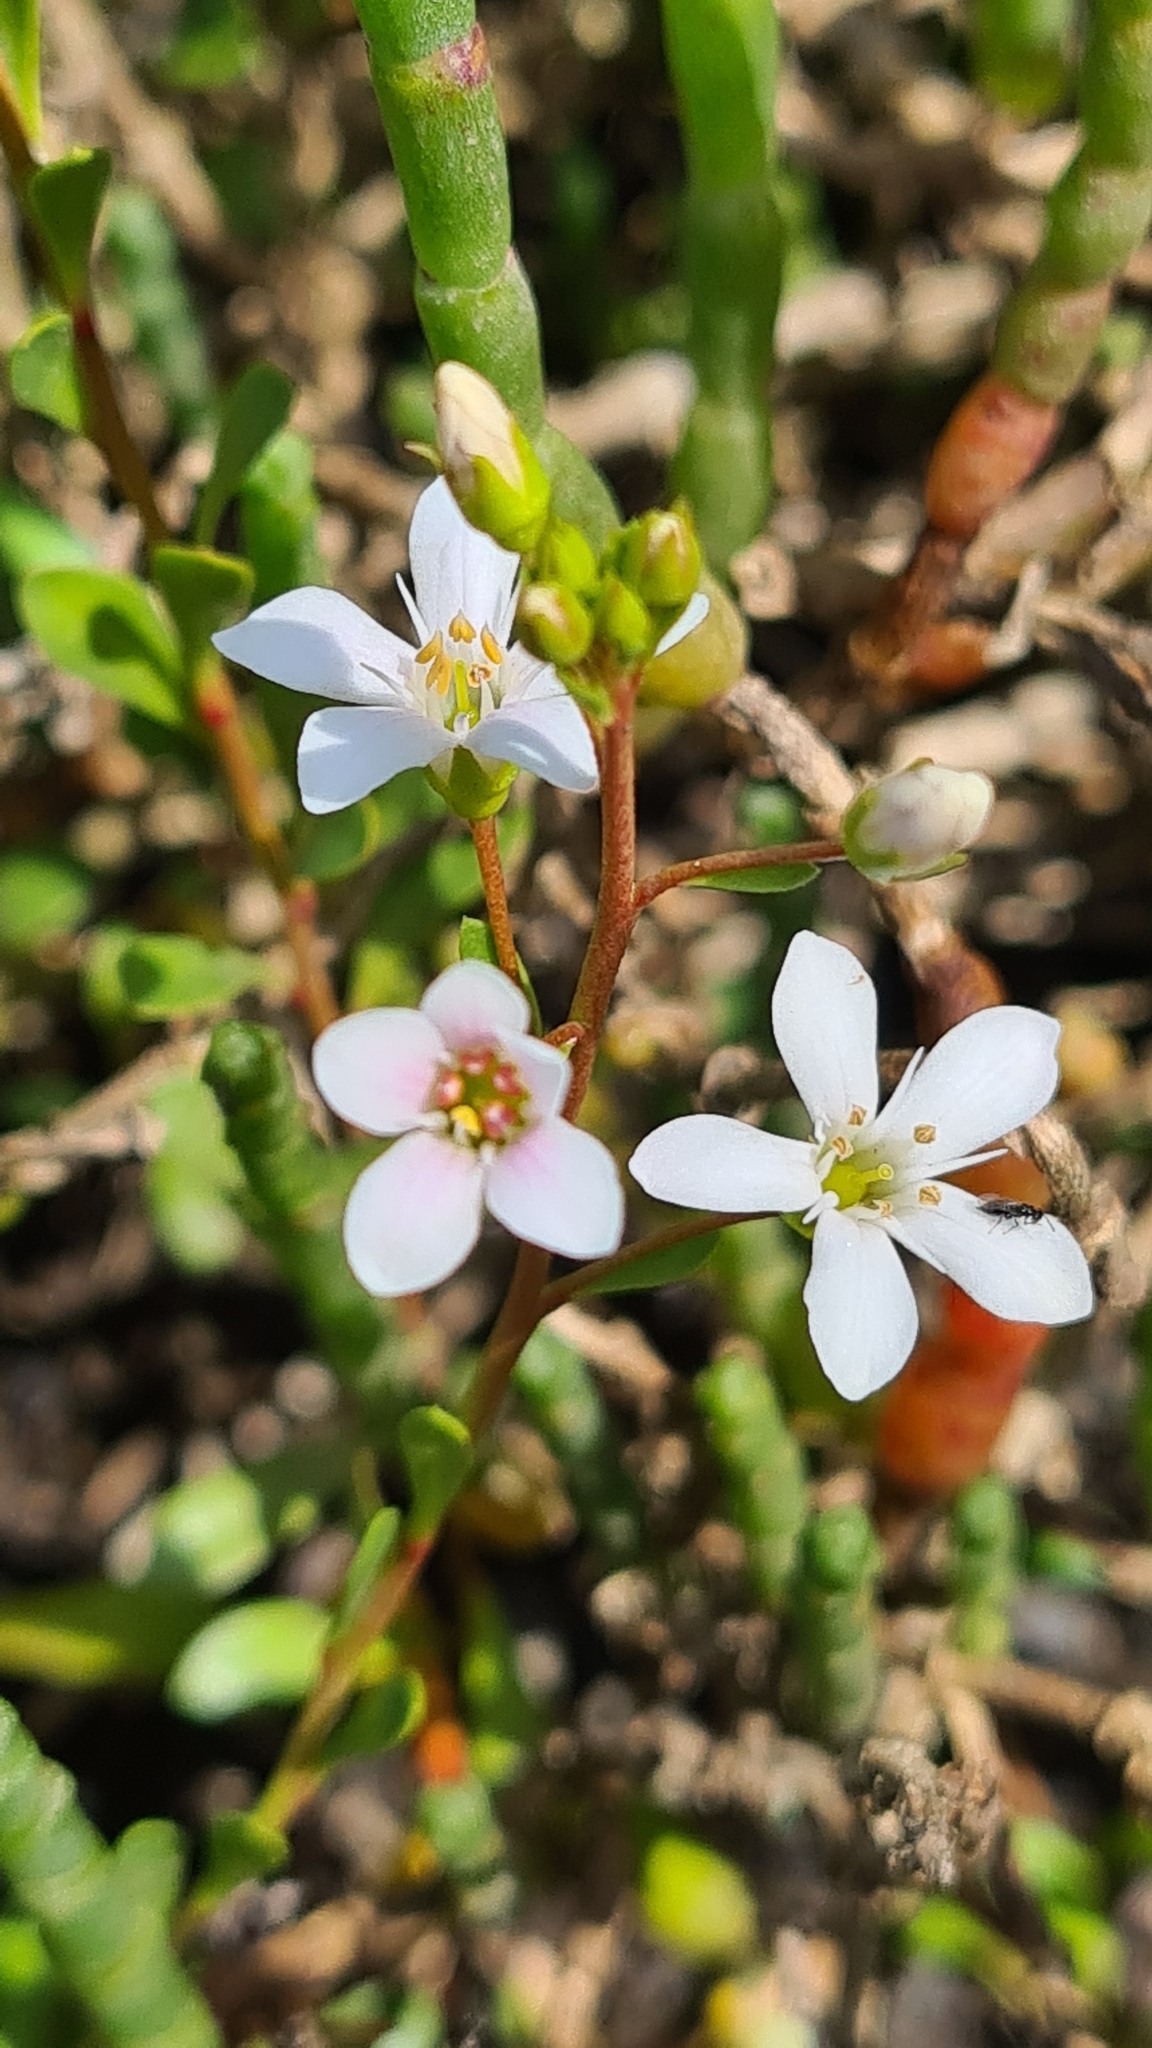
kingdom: Plantae
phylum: Tracheophyta
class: Magnoliopsida
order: Ericales
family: Primulaceae
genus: Samolus
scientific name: Samolus repens
